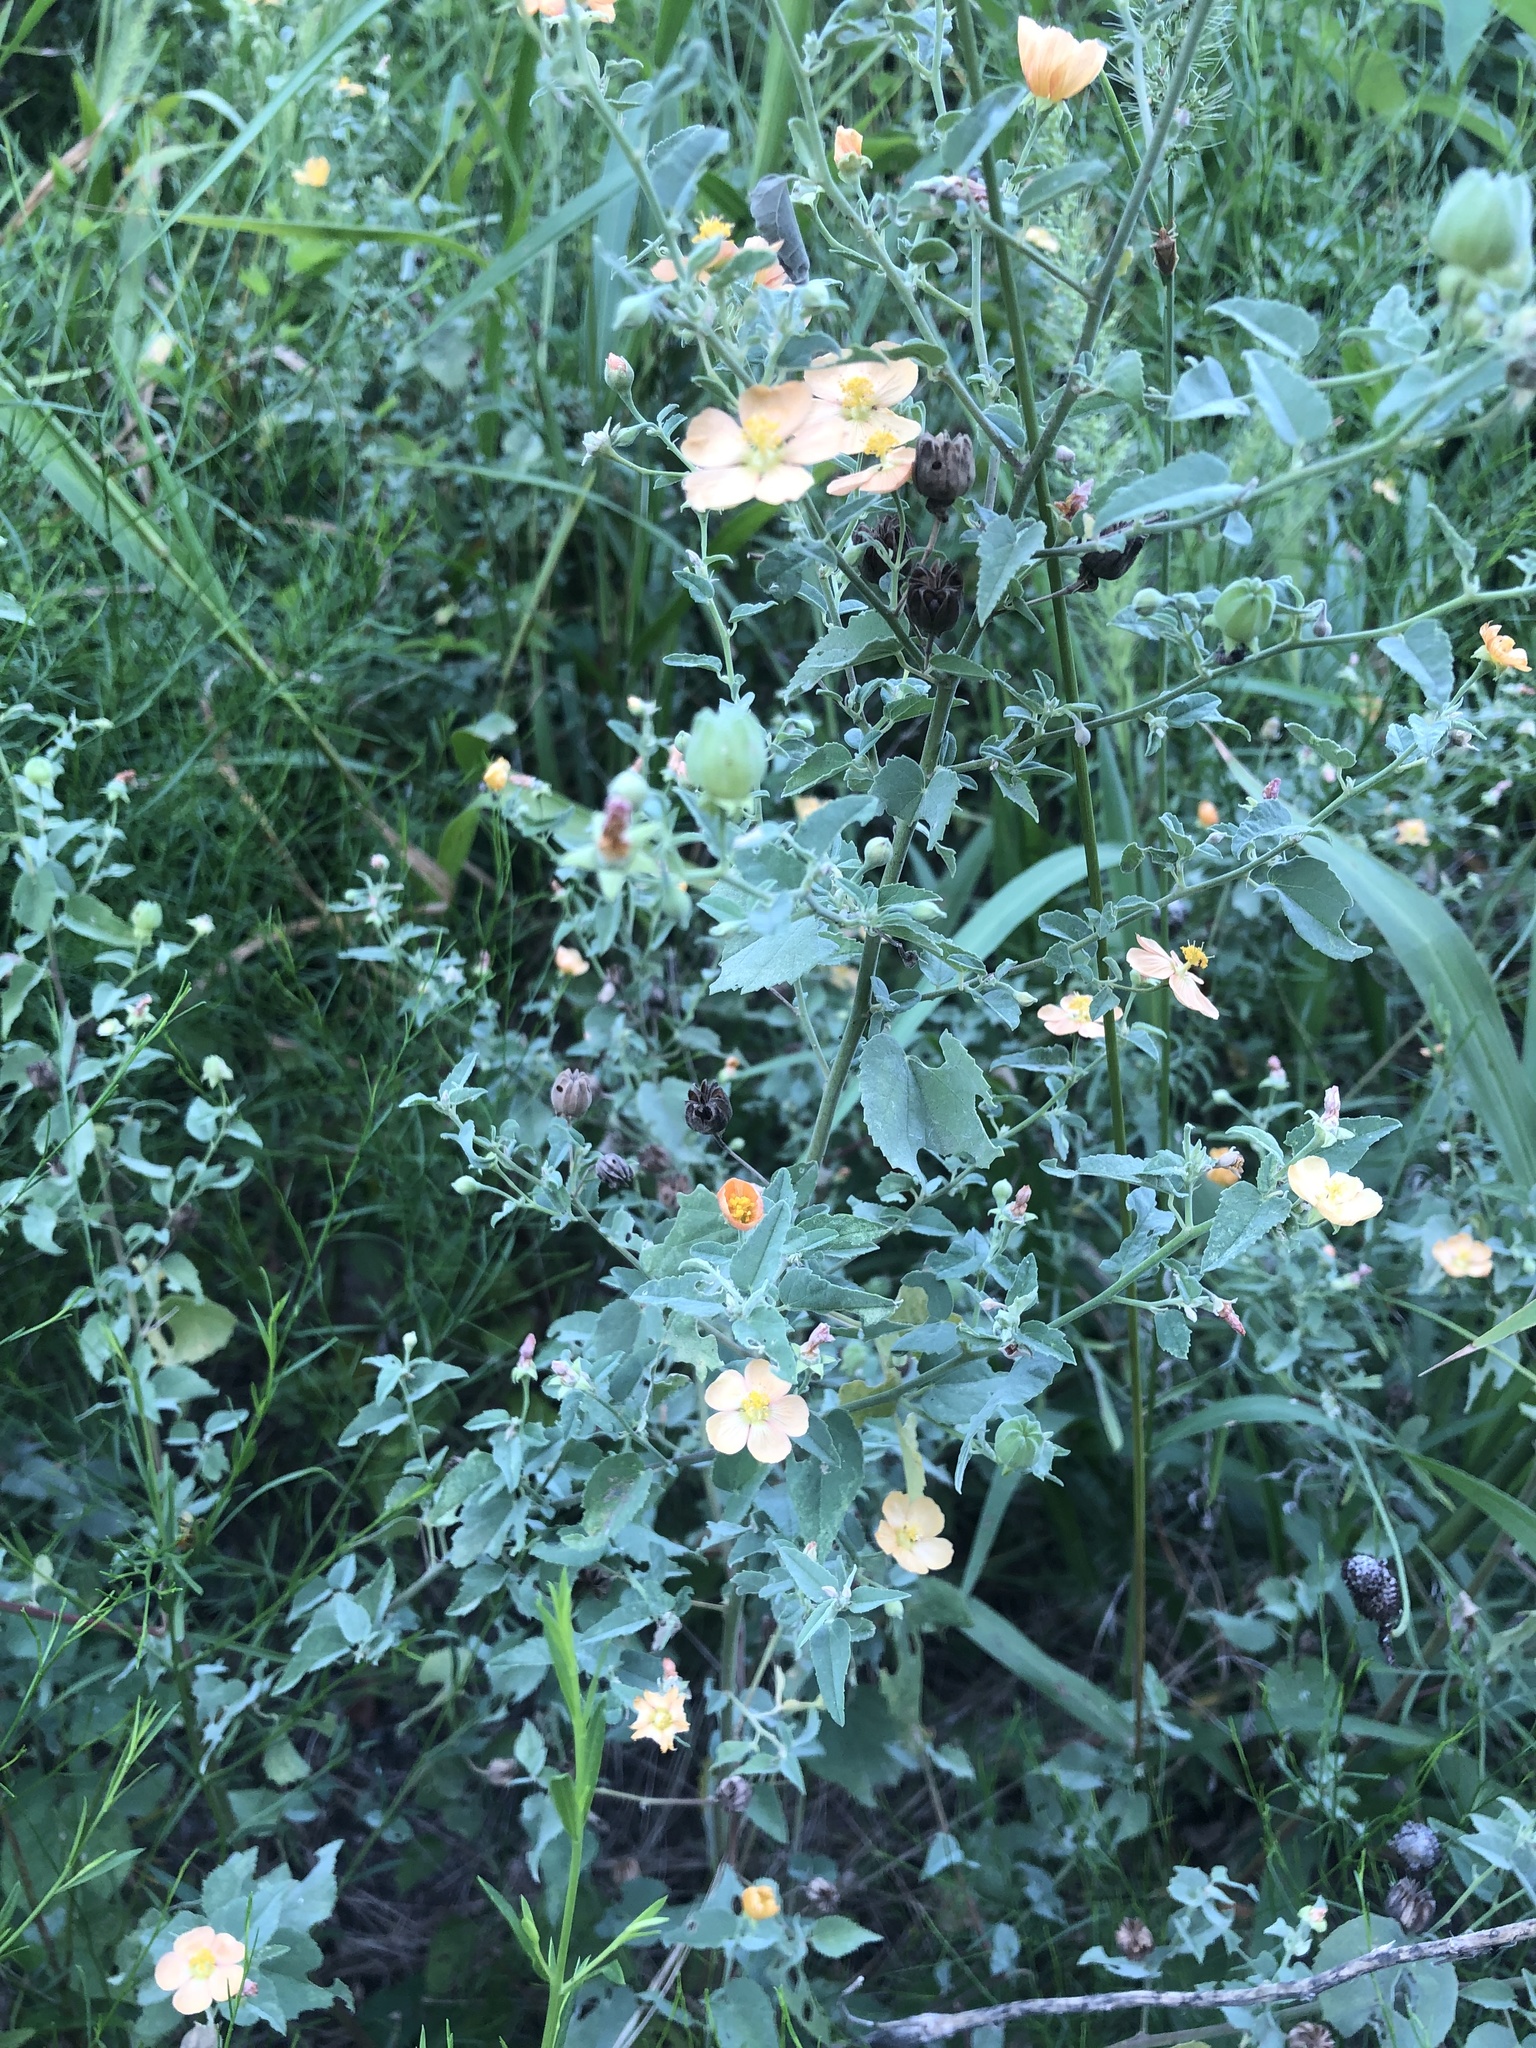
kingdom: Plantae
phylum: Tracheophyta
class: Magnoliopsida
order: Malvales
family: Malvaceae
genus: Abutilon
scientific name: Abutilon fruticosum
